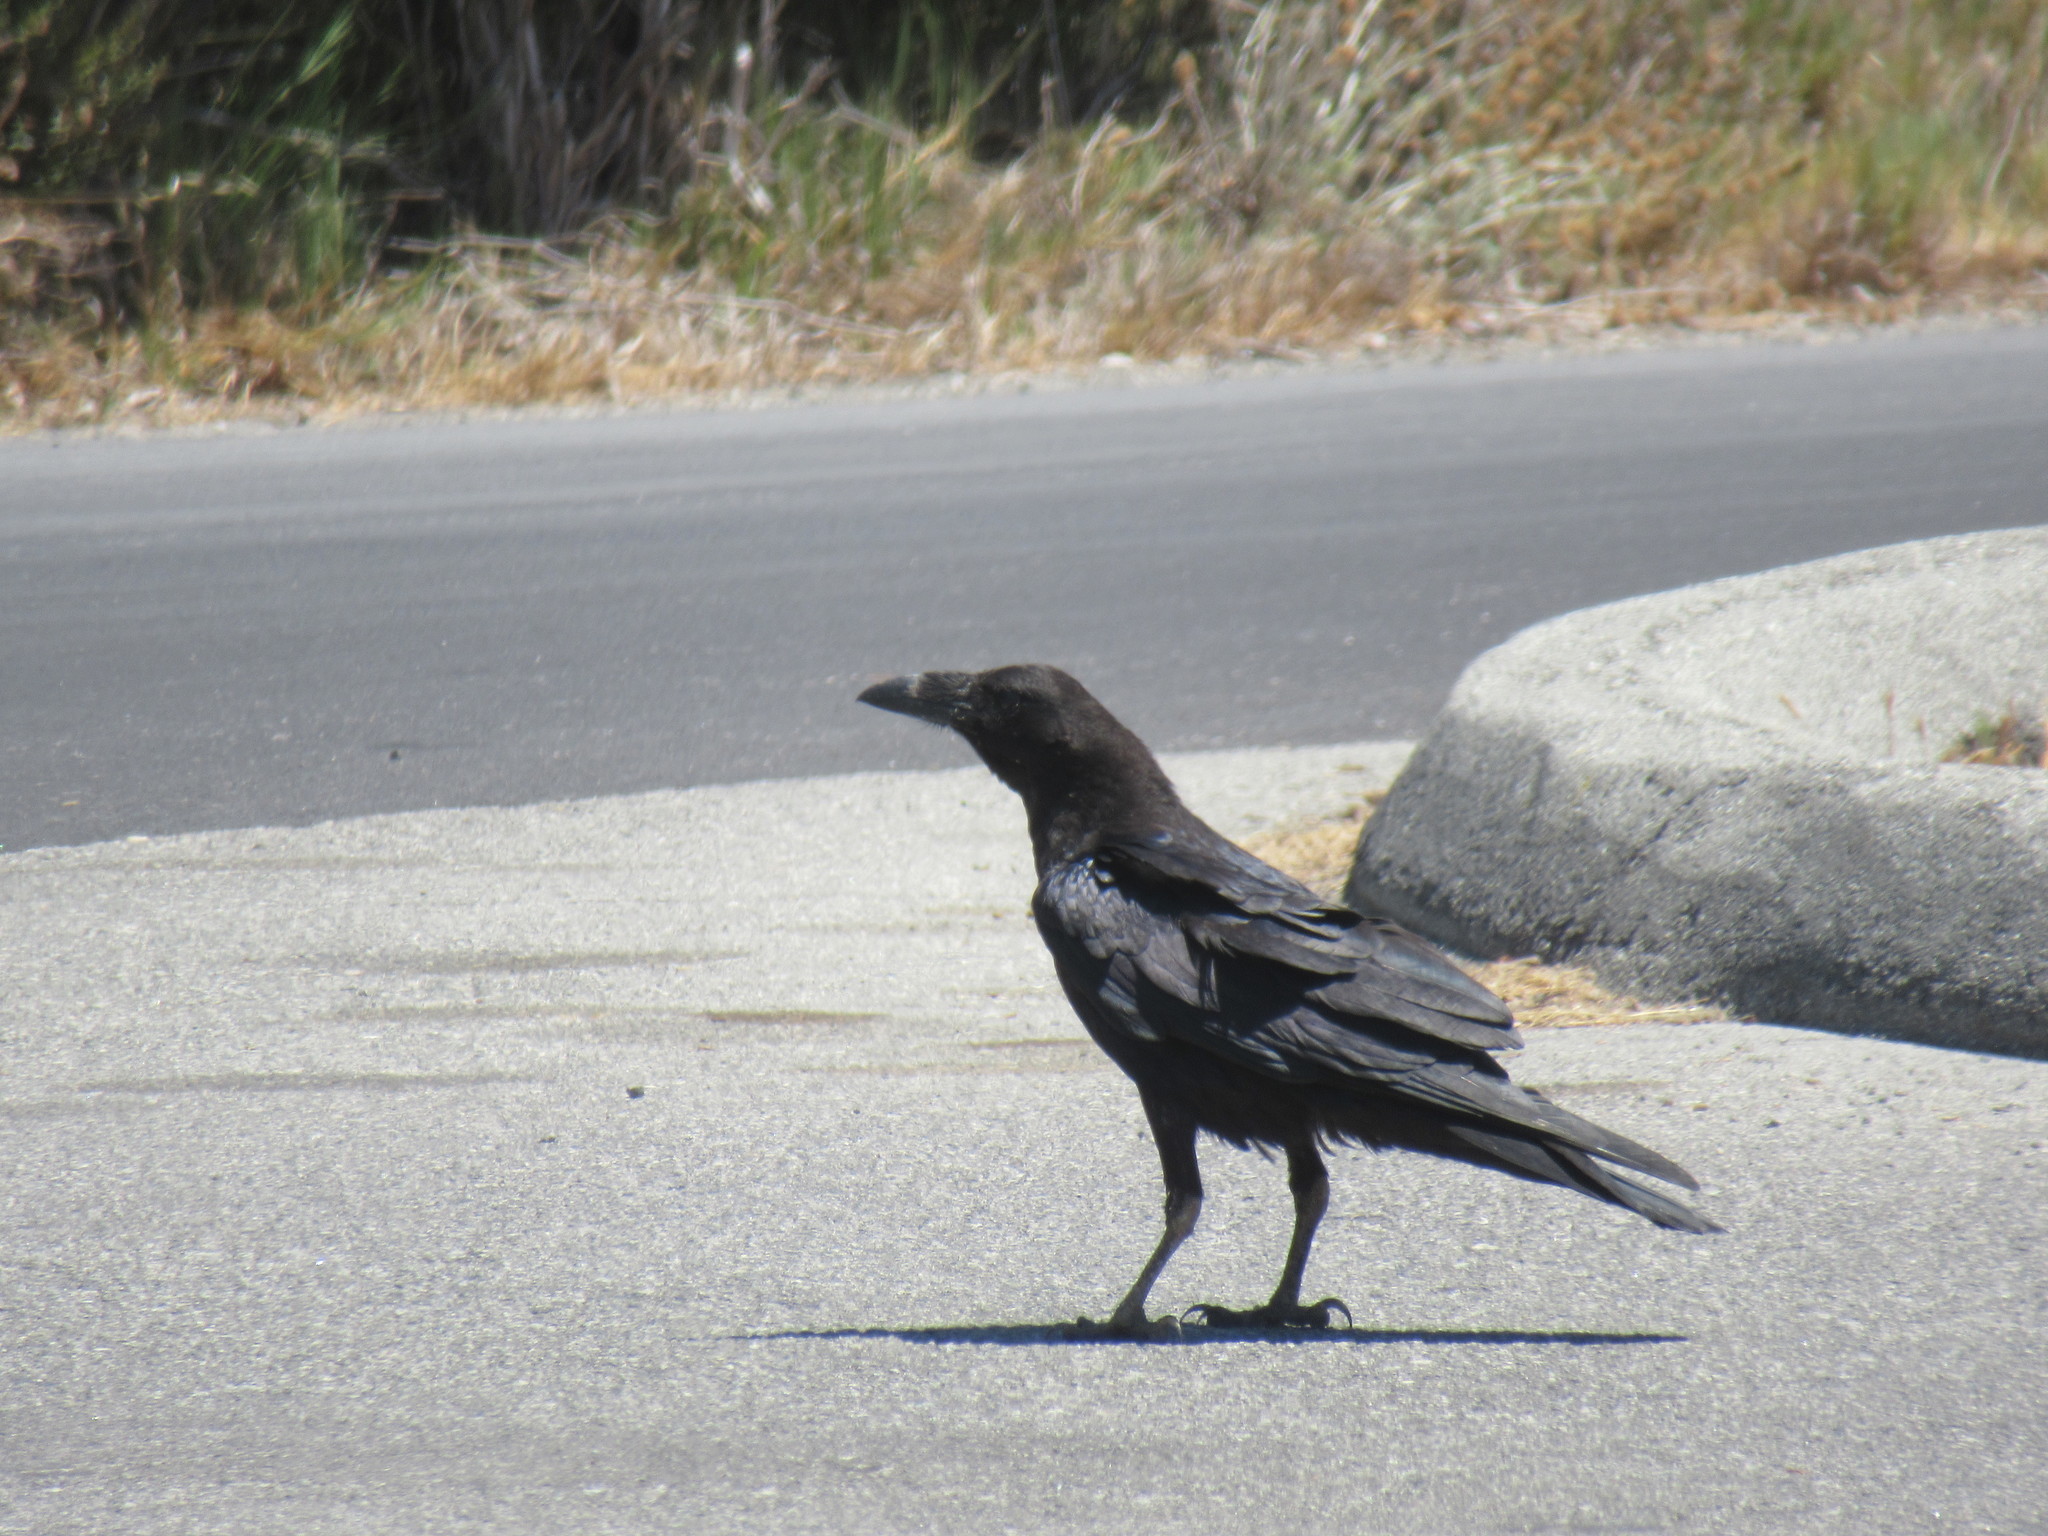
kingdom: Animalia
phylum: Chordata
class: Aves
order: Passeriformes
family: Corvidae
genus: Corvus
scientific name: Corvus corax
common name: Common raven
